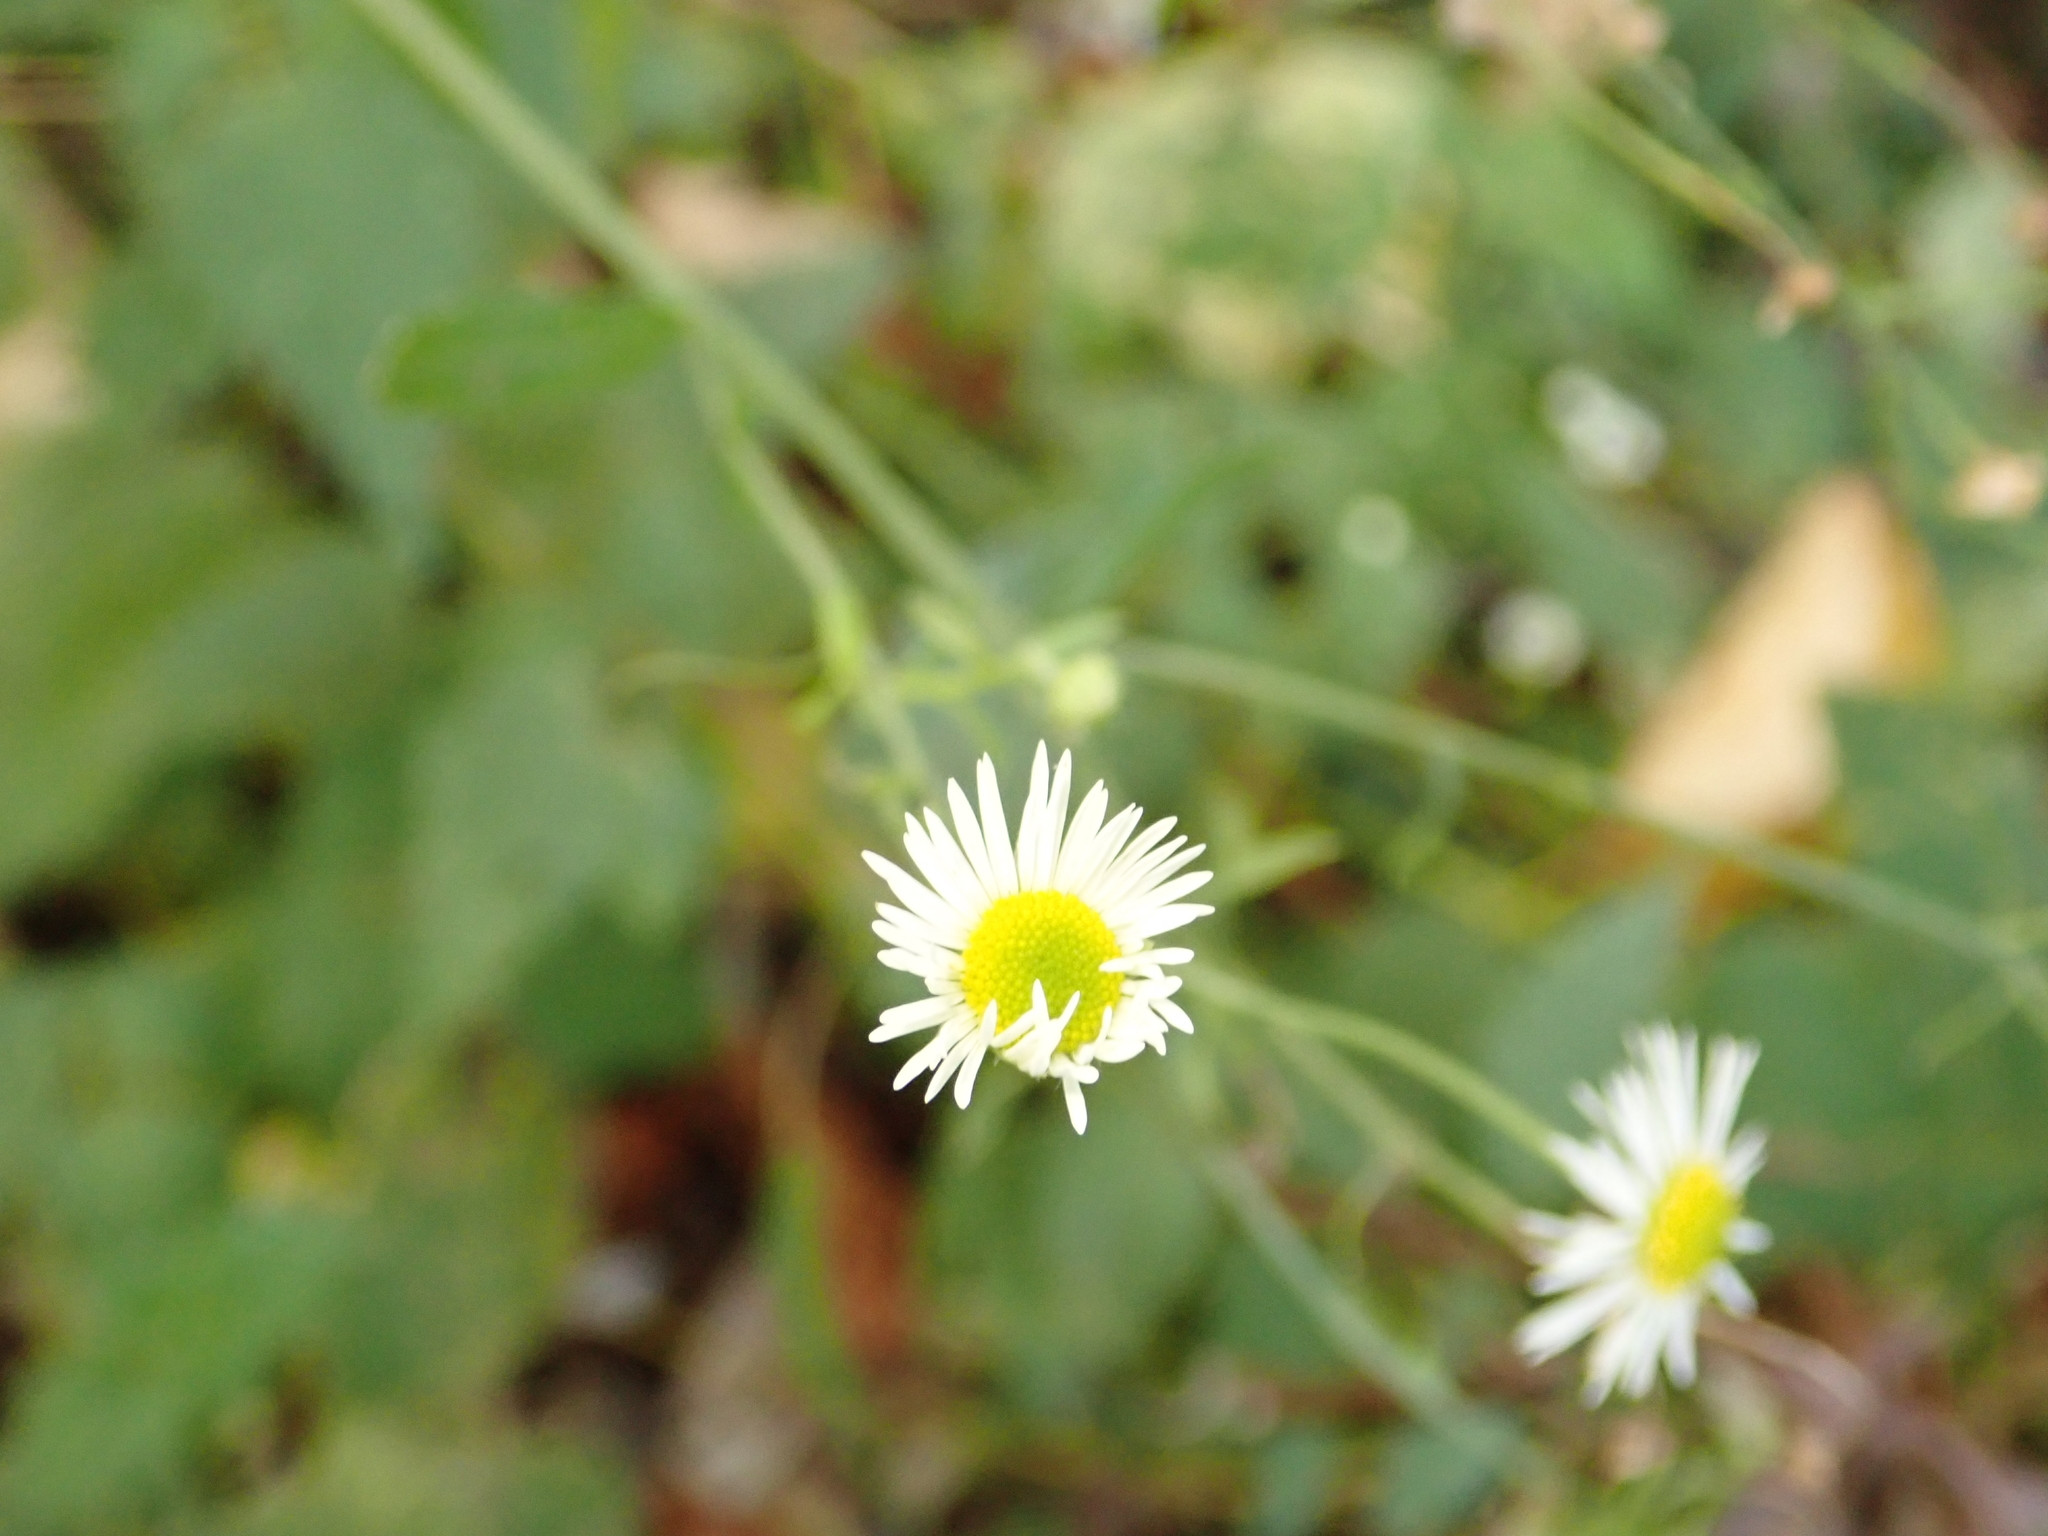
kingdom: Plantae
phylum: Tracheophyta
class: Magnoliopsida
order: Asterales
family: Asteraceae
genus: Erigeron
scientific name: Erigeron annuus
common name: Tall fleabane
